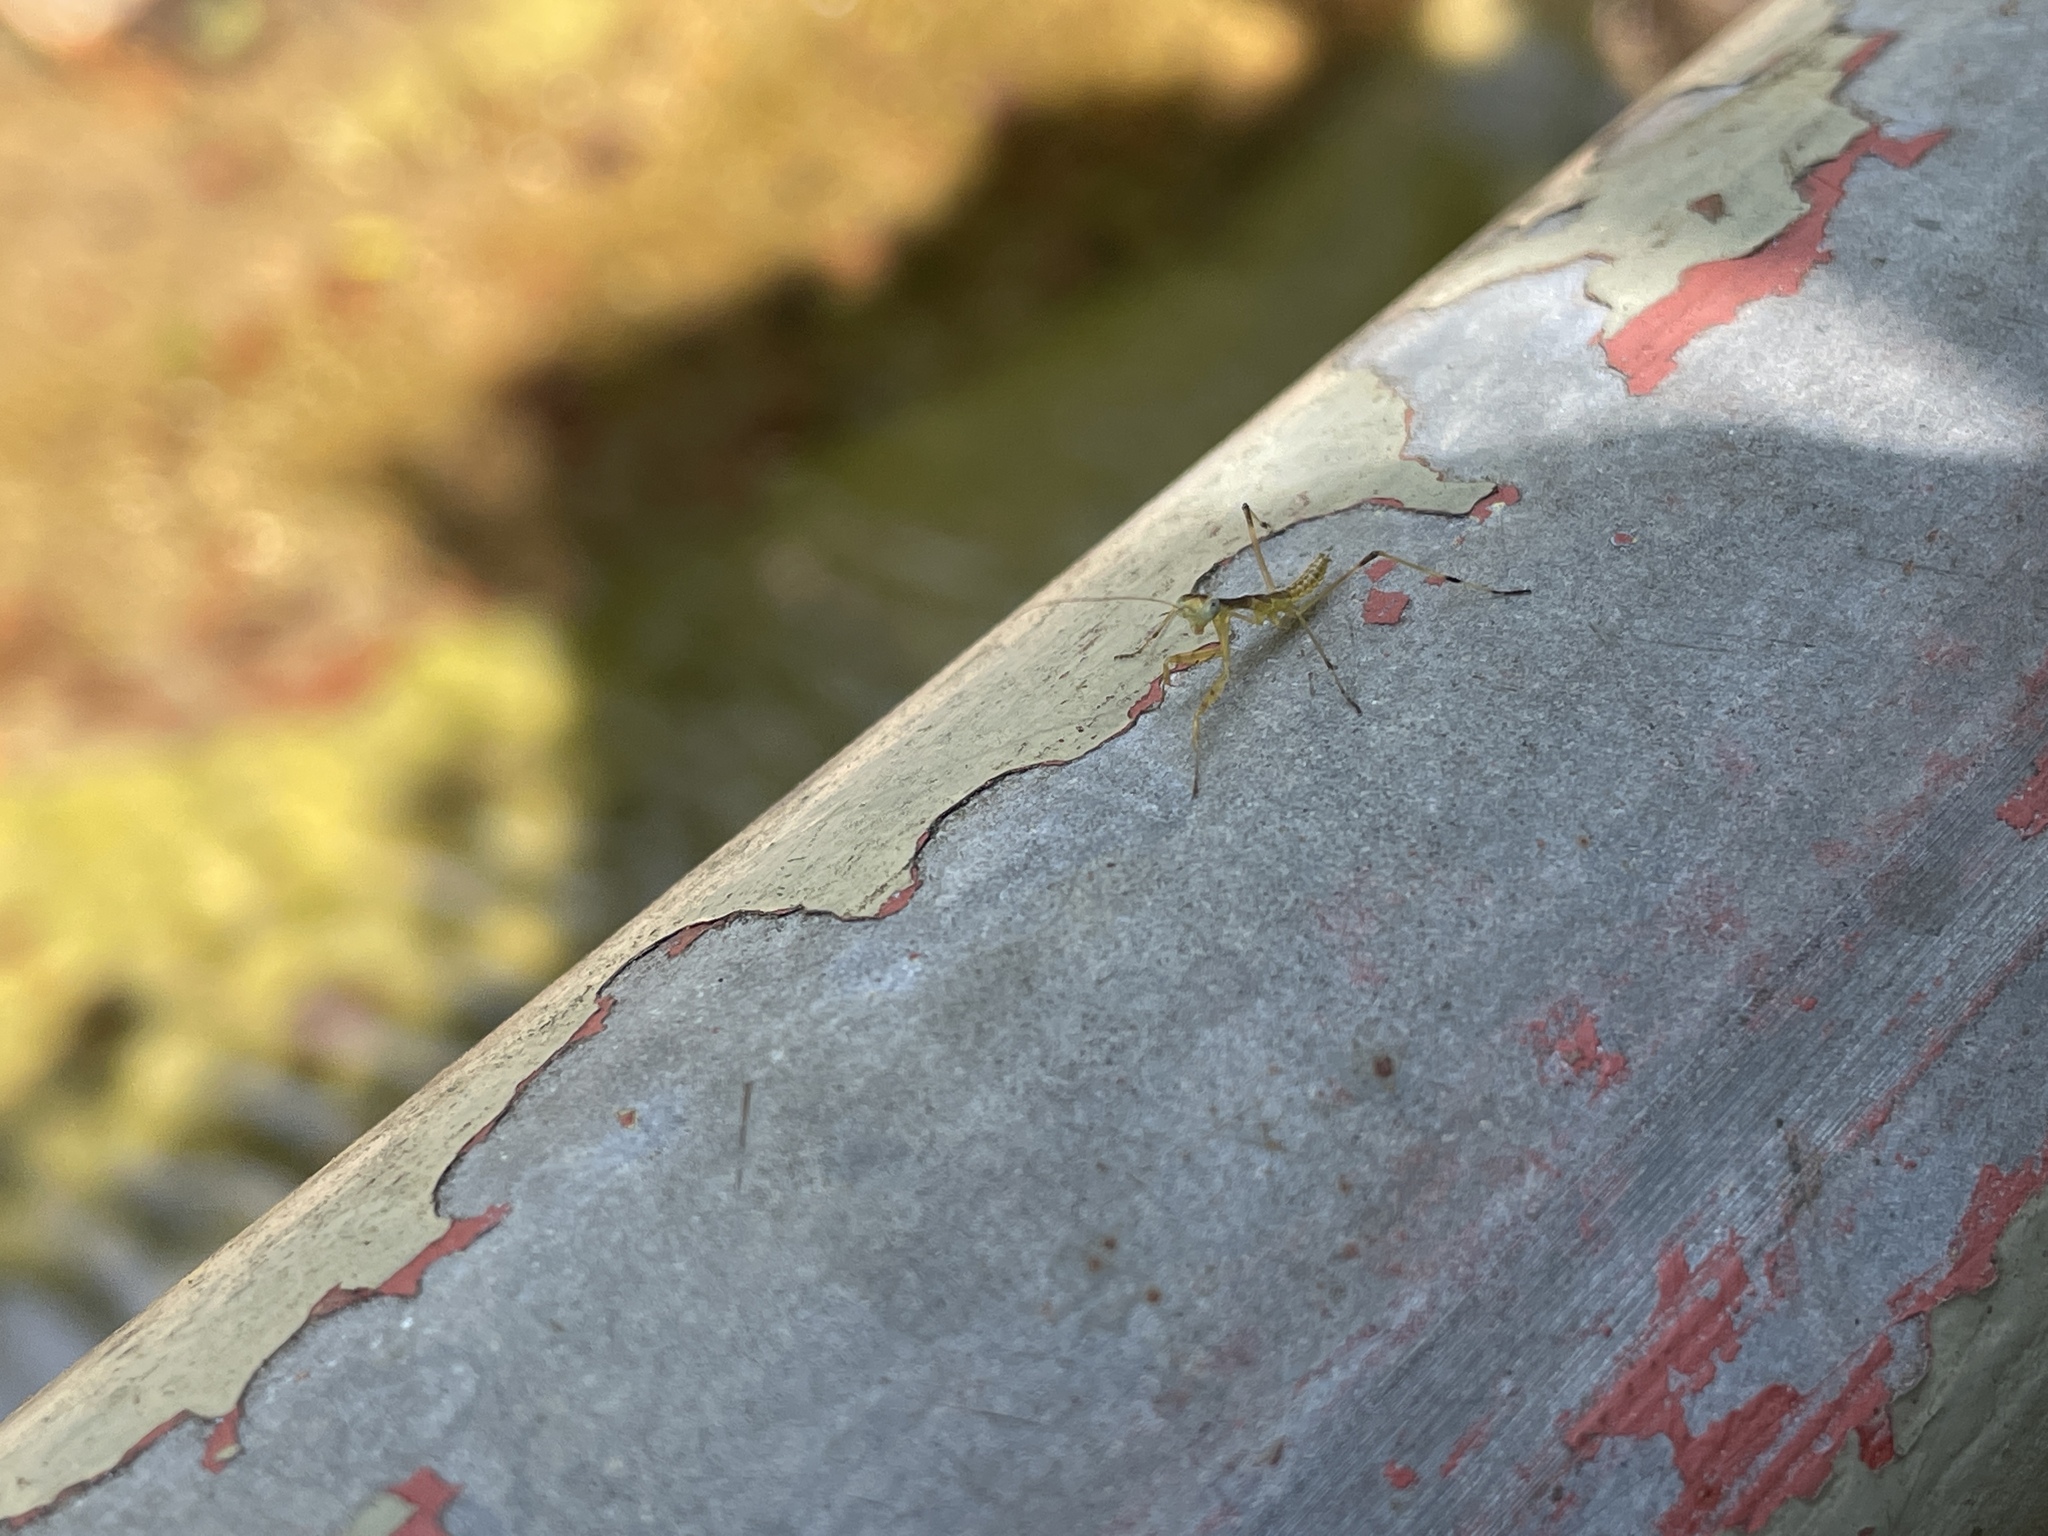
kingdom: Animalia
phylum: Arthropoda
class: Insecta
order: Mantodea
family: Mantidae
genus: Hierodula
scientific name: Hierodula patellifera
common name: Asian mantis
